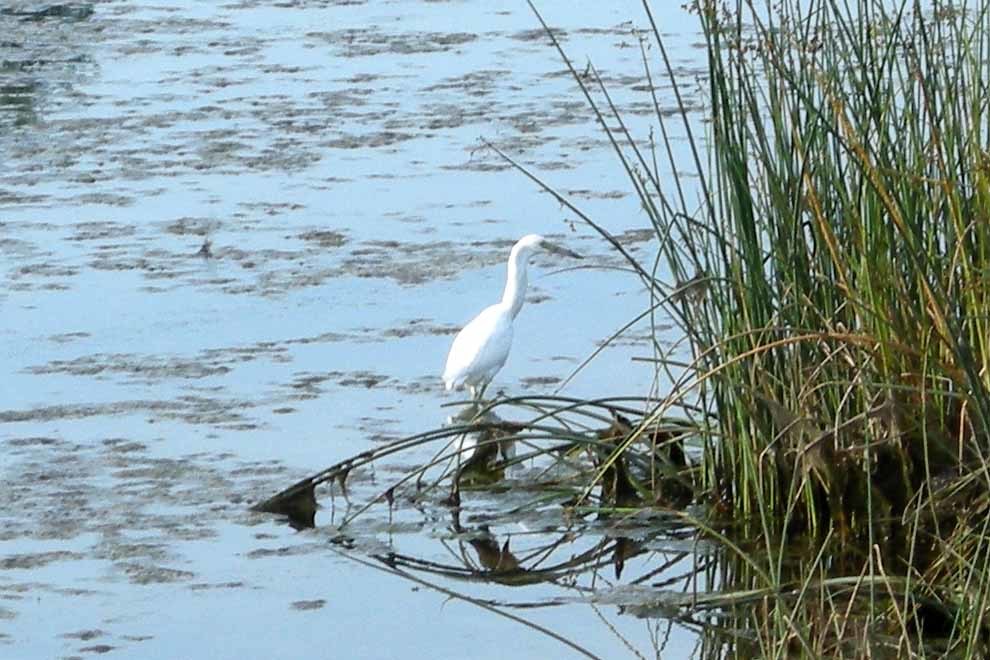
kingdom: Animalia
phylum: Chordata
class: Aves
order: Pelecaniformes
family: Ardeidae
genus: Egretta
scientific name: Egretta caerulea
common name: Little blue heron
